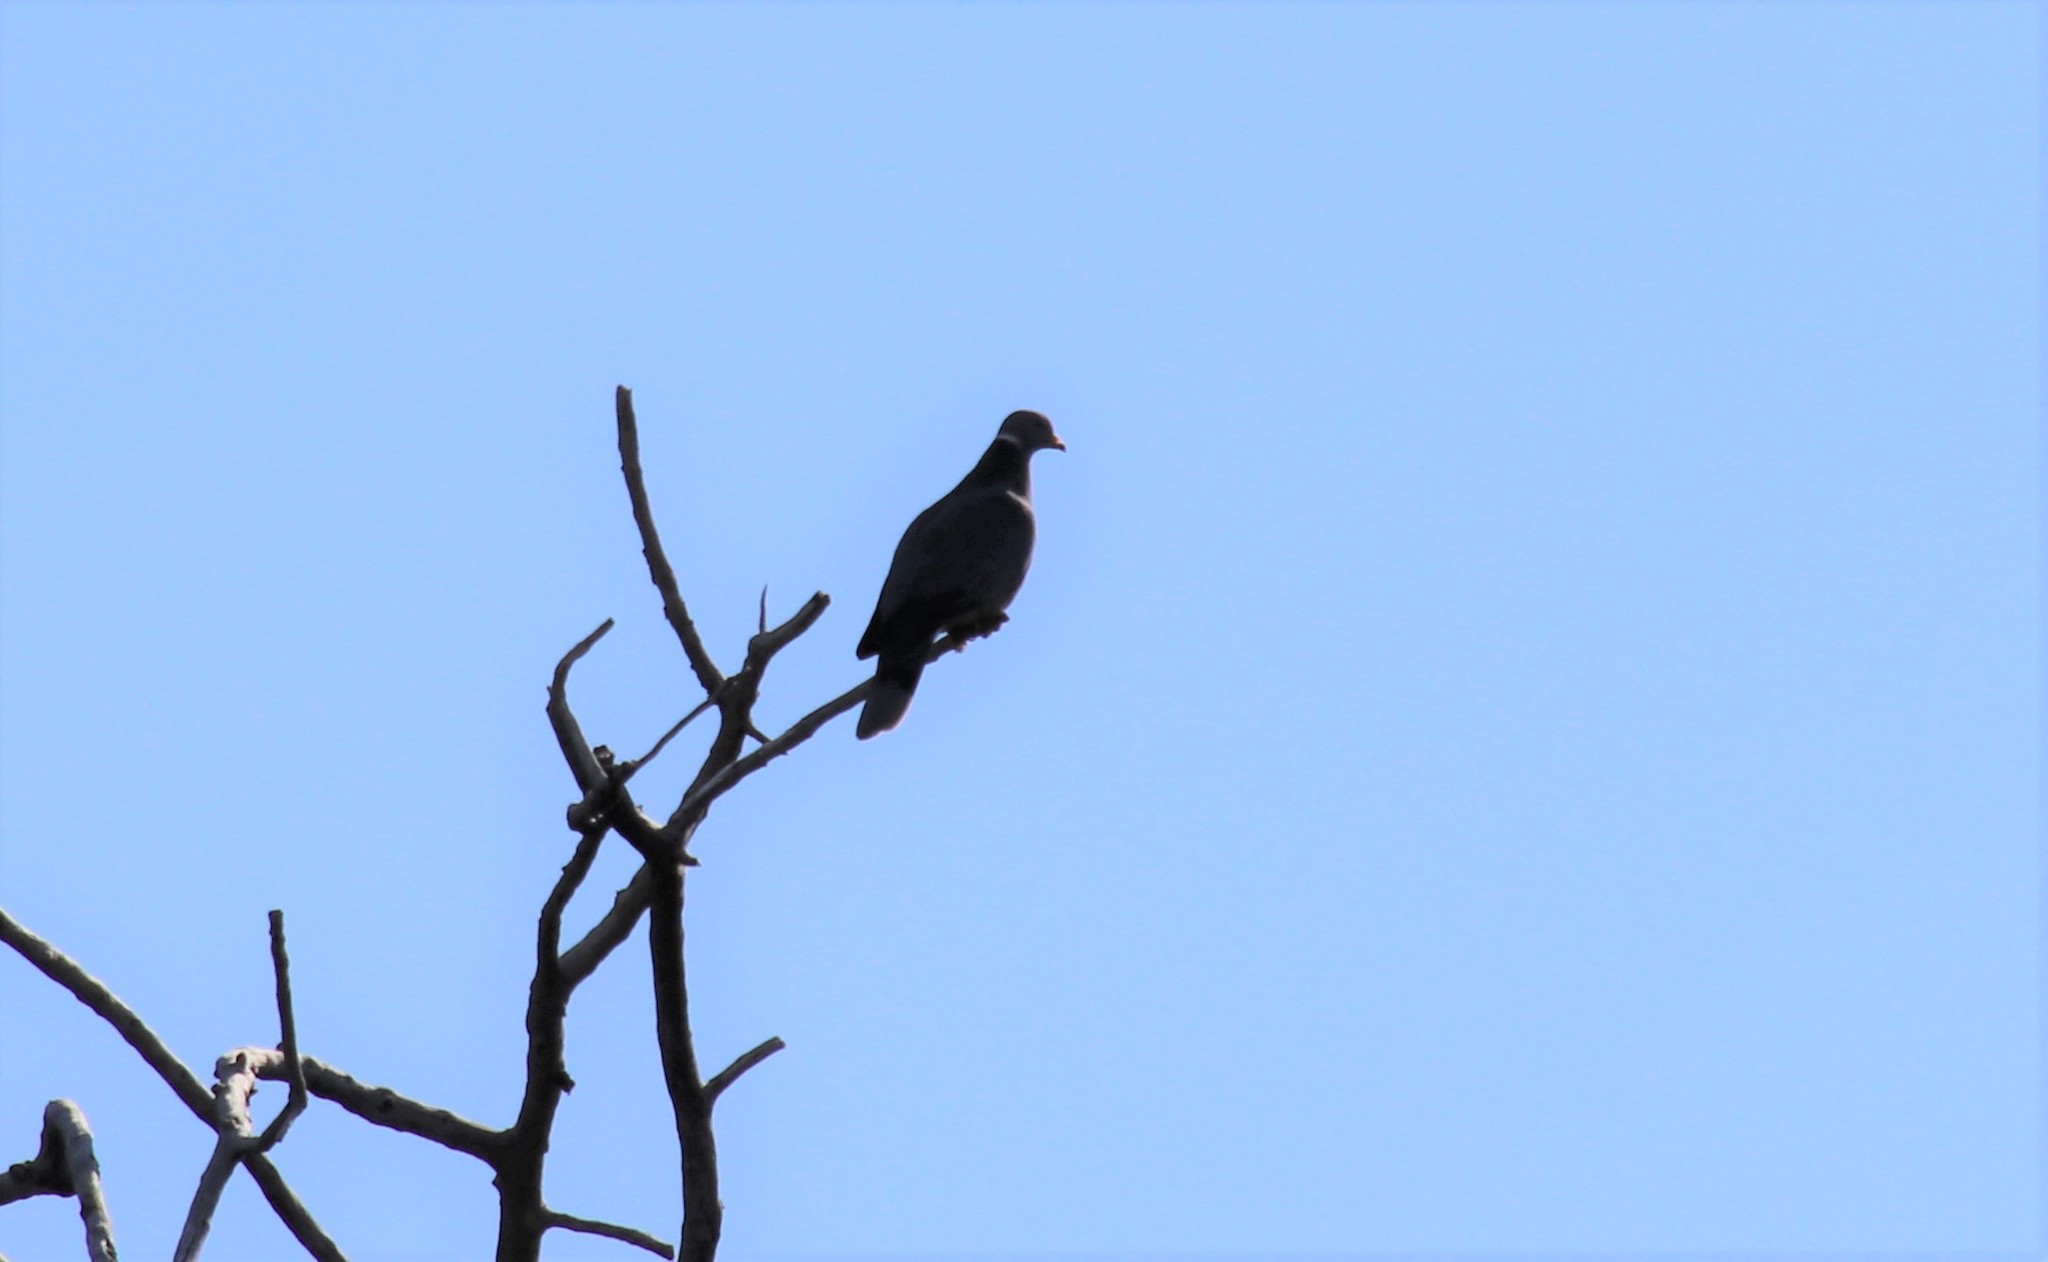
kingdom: Animalia
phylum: Chordata
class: Aves
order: Columbiformes
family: Columbidae
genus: Patagioenas
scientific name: Patagioenas fasciata
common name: Band-tailed pigeon
